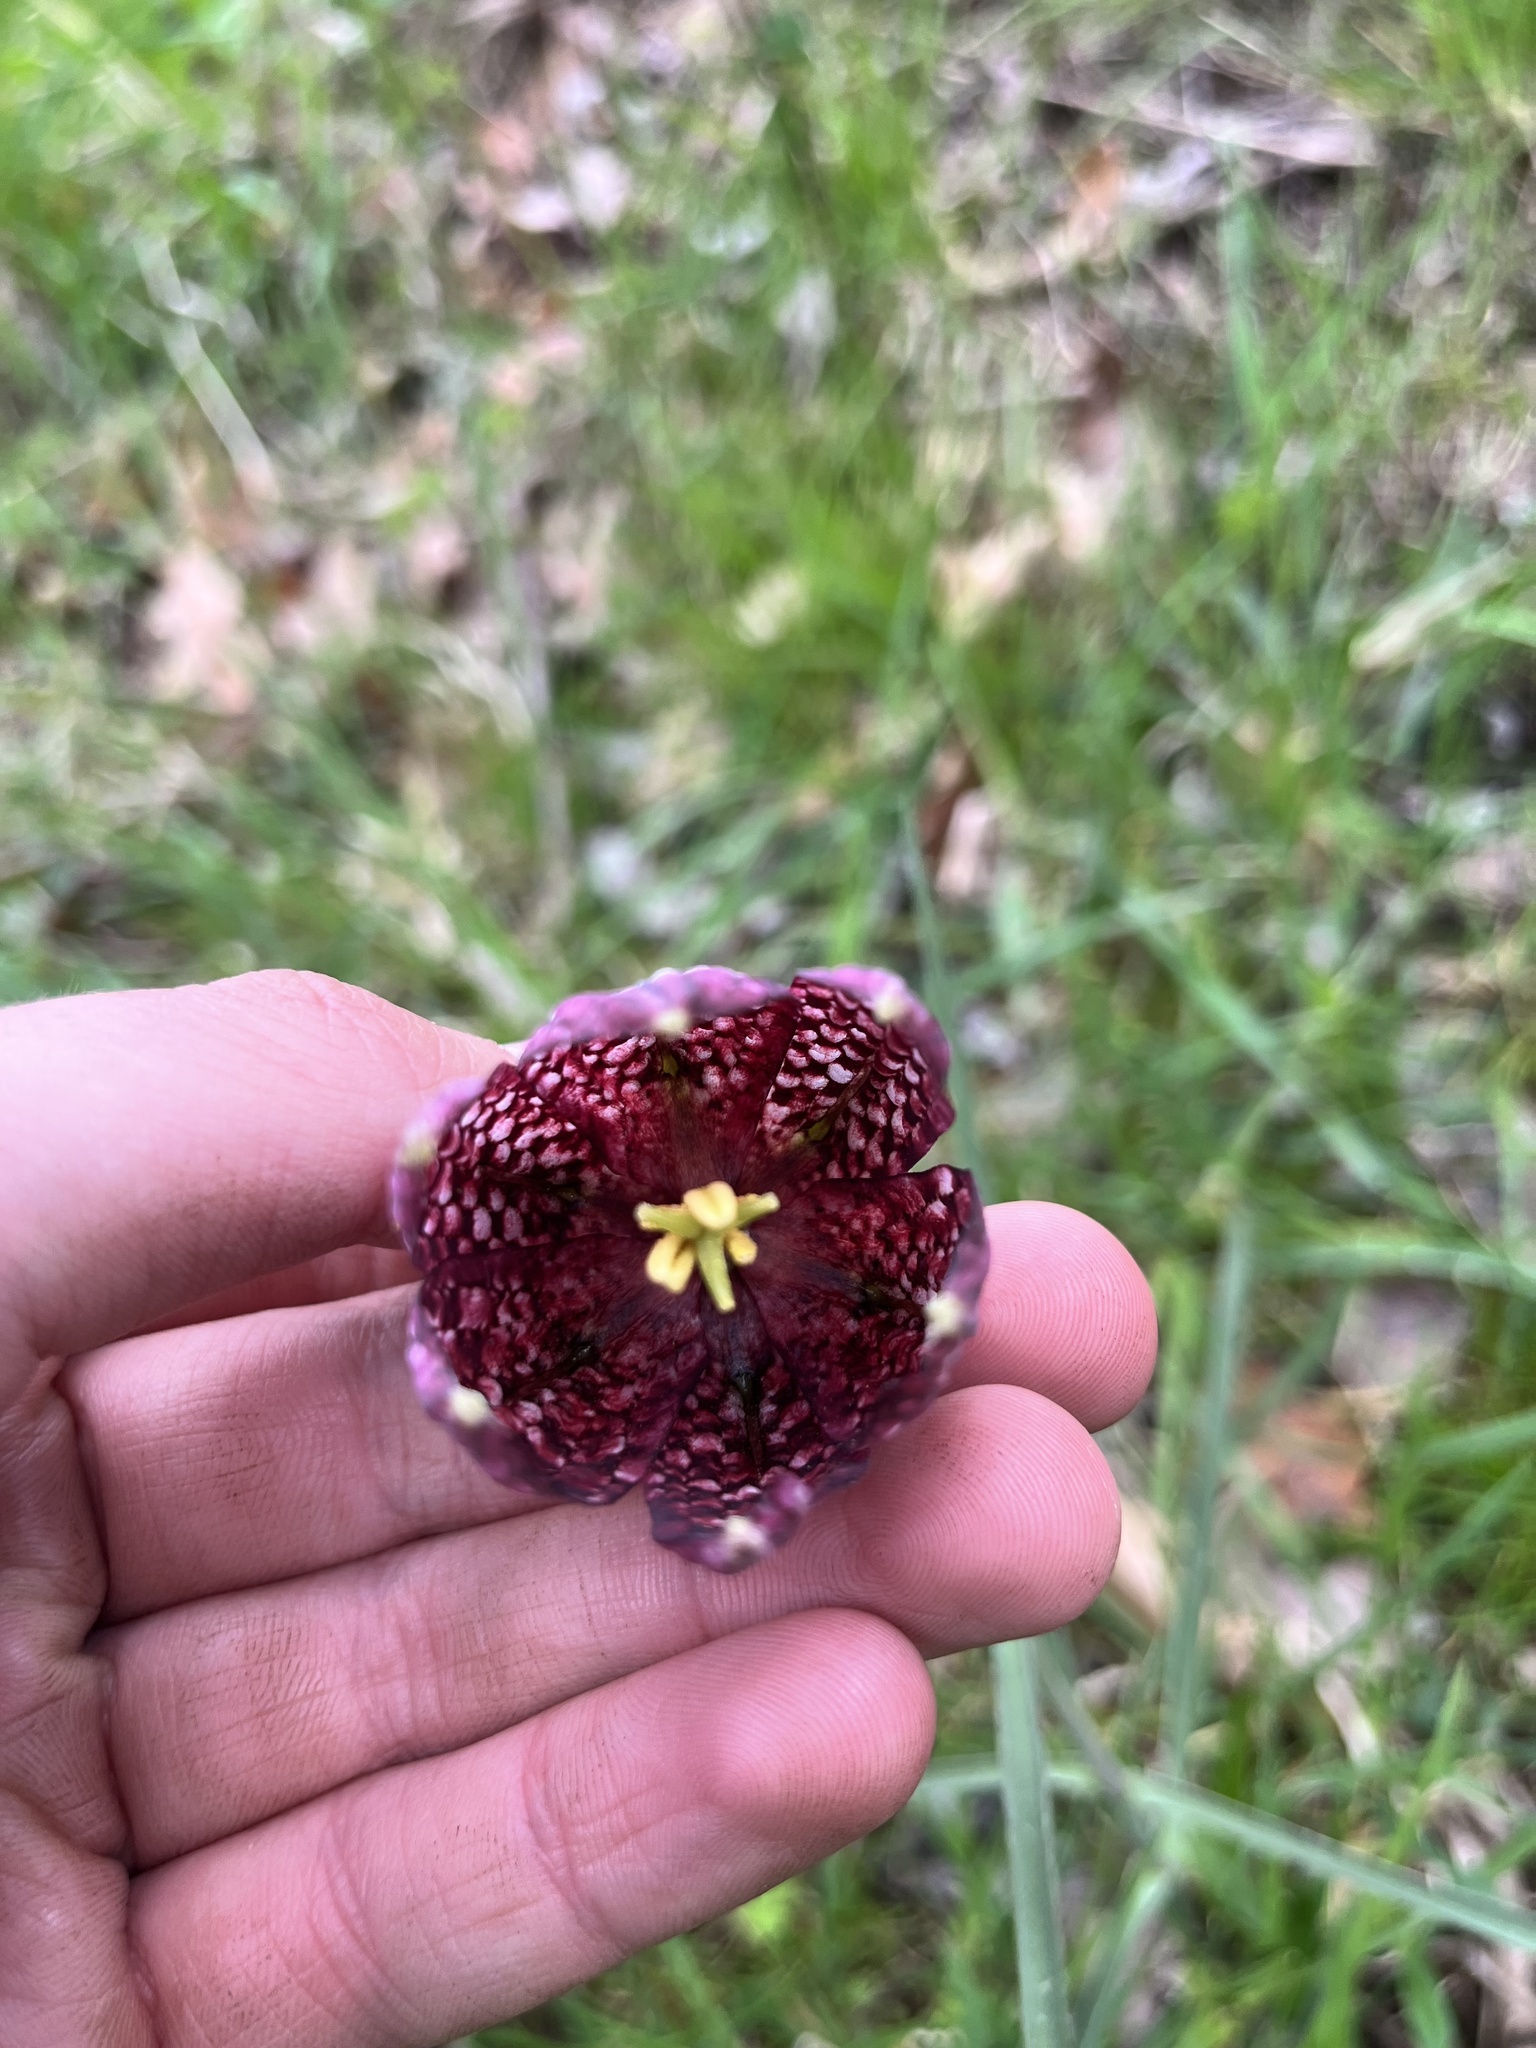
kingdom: Plantae
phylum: Tracheophyta
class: Liliopsida
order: Liliales
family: Liliaceae
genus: Fritillaria
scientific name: Fritillaria meleagris
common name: Fritillary
